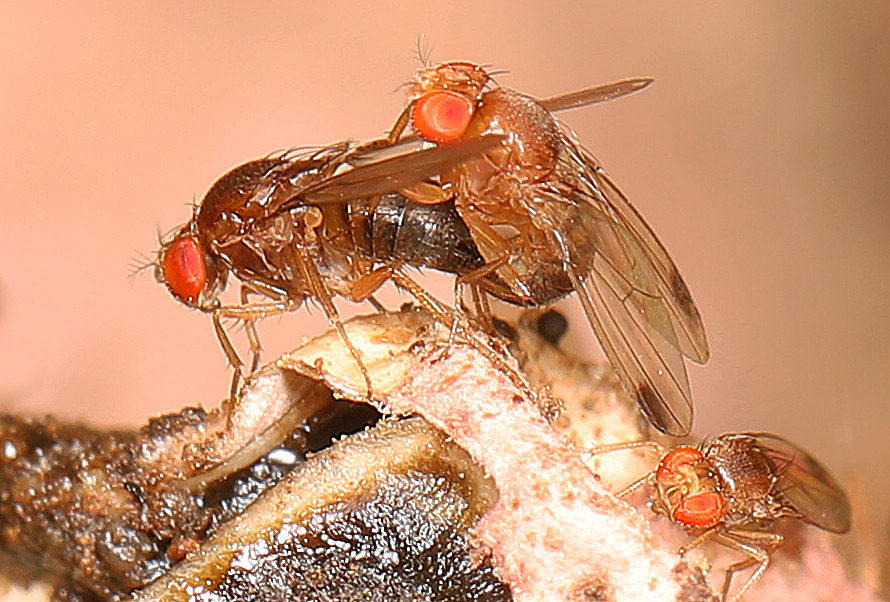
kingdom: Animalia
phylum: Arthropoda
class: Insecta
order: Diptera
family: Drosophilidae
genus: Drosophila
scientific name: Drosophila suzukii
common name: Spotted-wing drosophila
